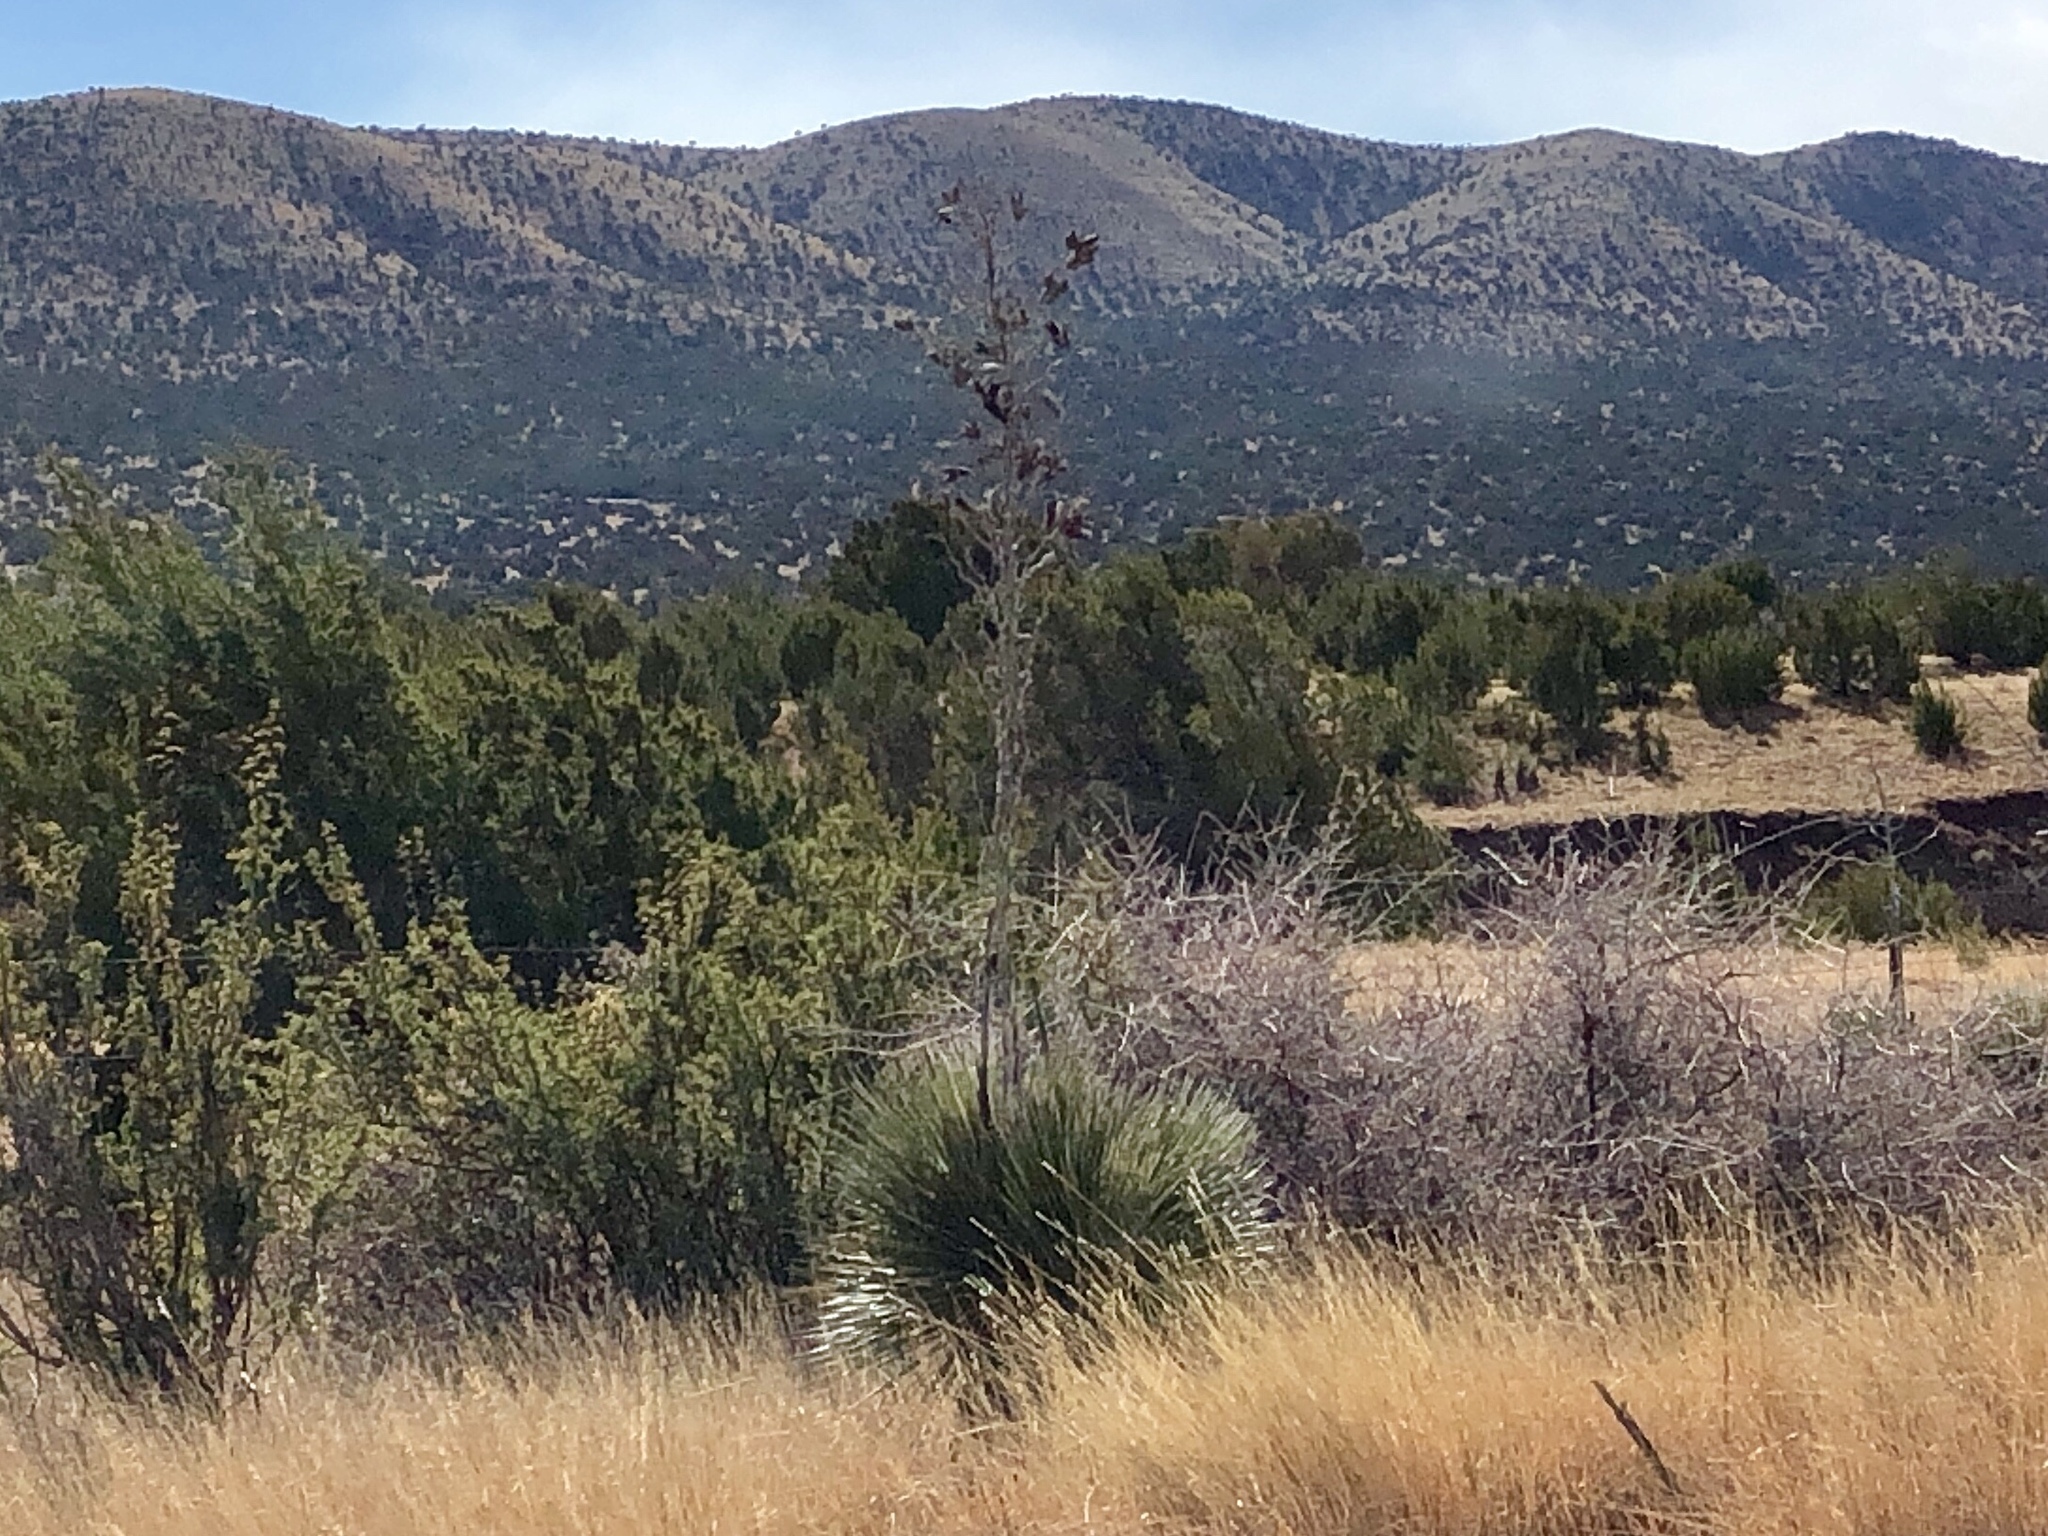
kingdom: Plantae
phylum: Tracheophyta
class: Magnoliopsida
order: Zygophyllales
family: Zygophyllaceae
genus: Larrea
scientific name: Larrea tridentata
